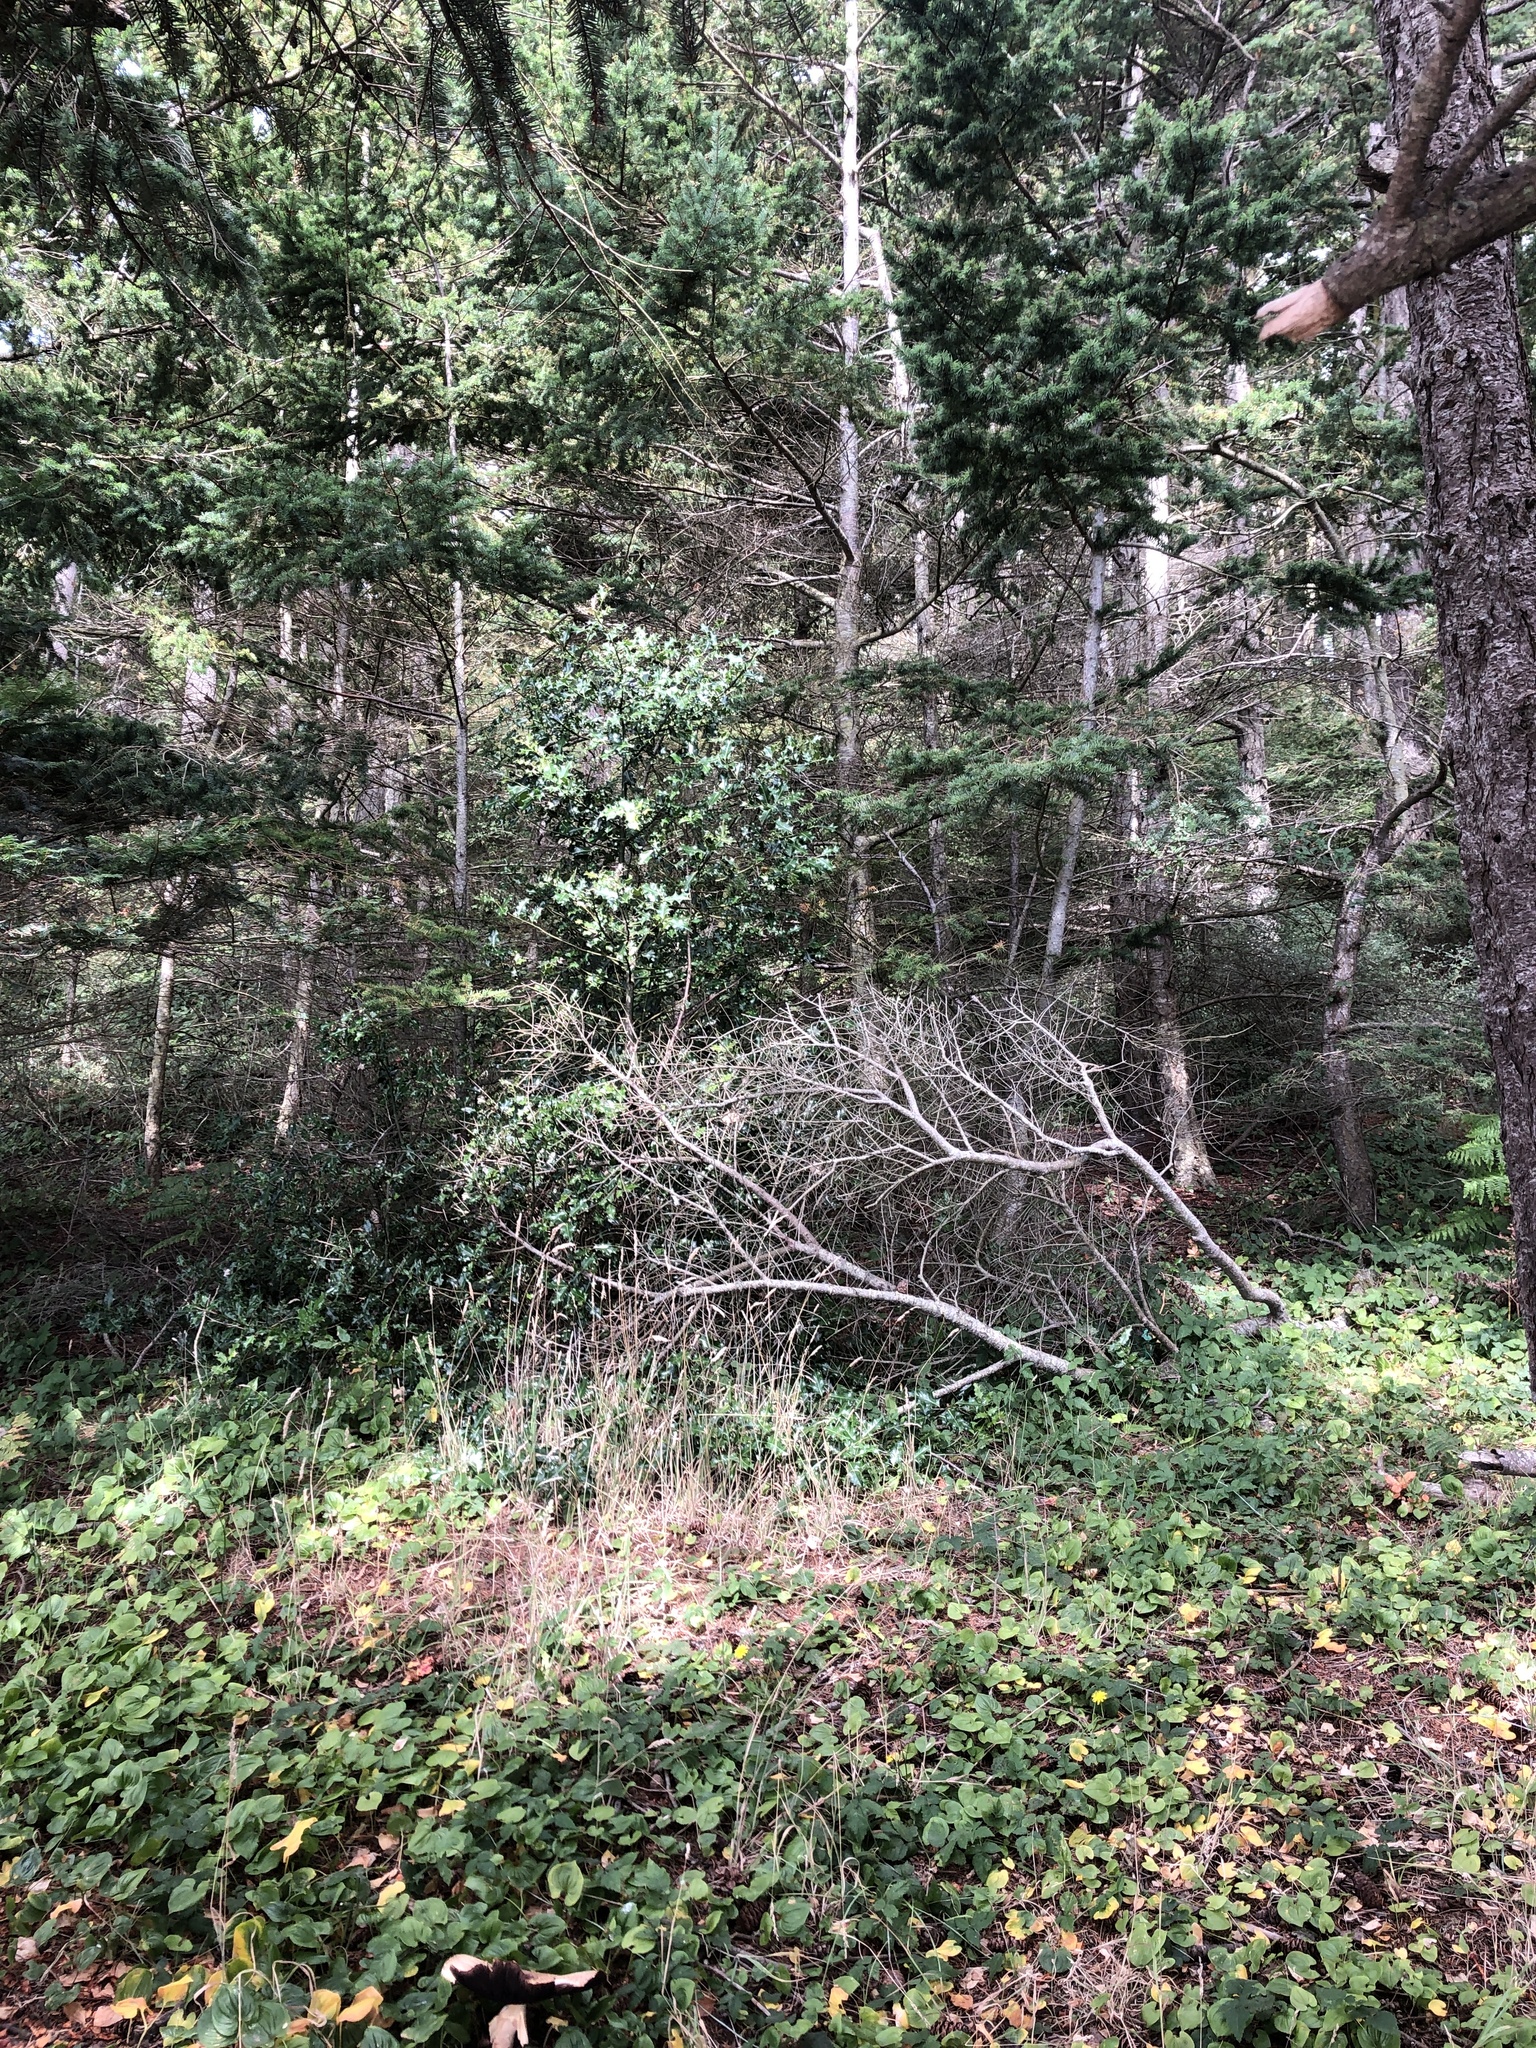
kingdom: Plantae
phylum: Tracheophyta
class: Magnoliopsida
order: Aquifoliales
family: Aquifoliaceae
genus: Ilex
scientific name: Ilex aquifolium
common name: English holly
